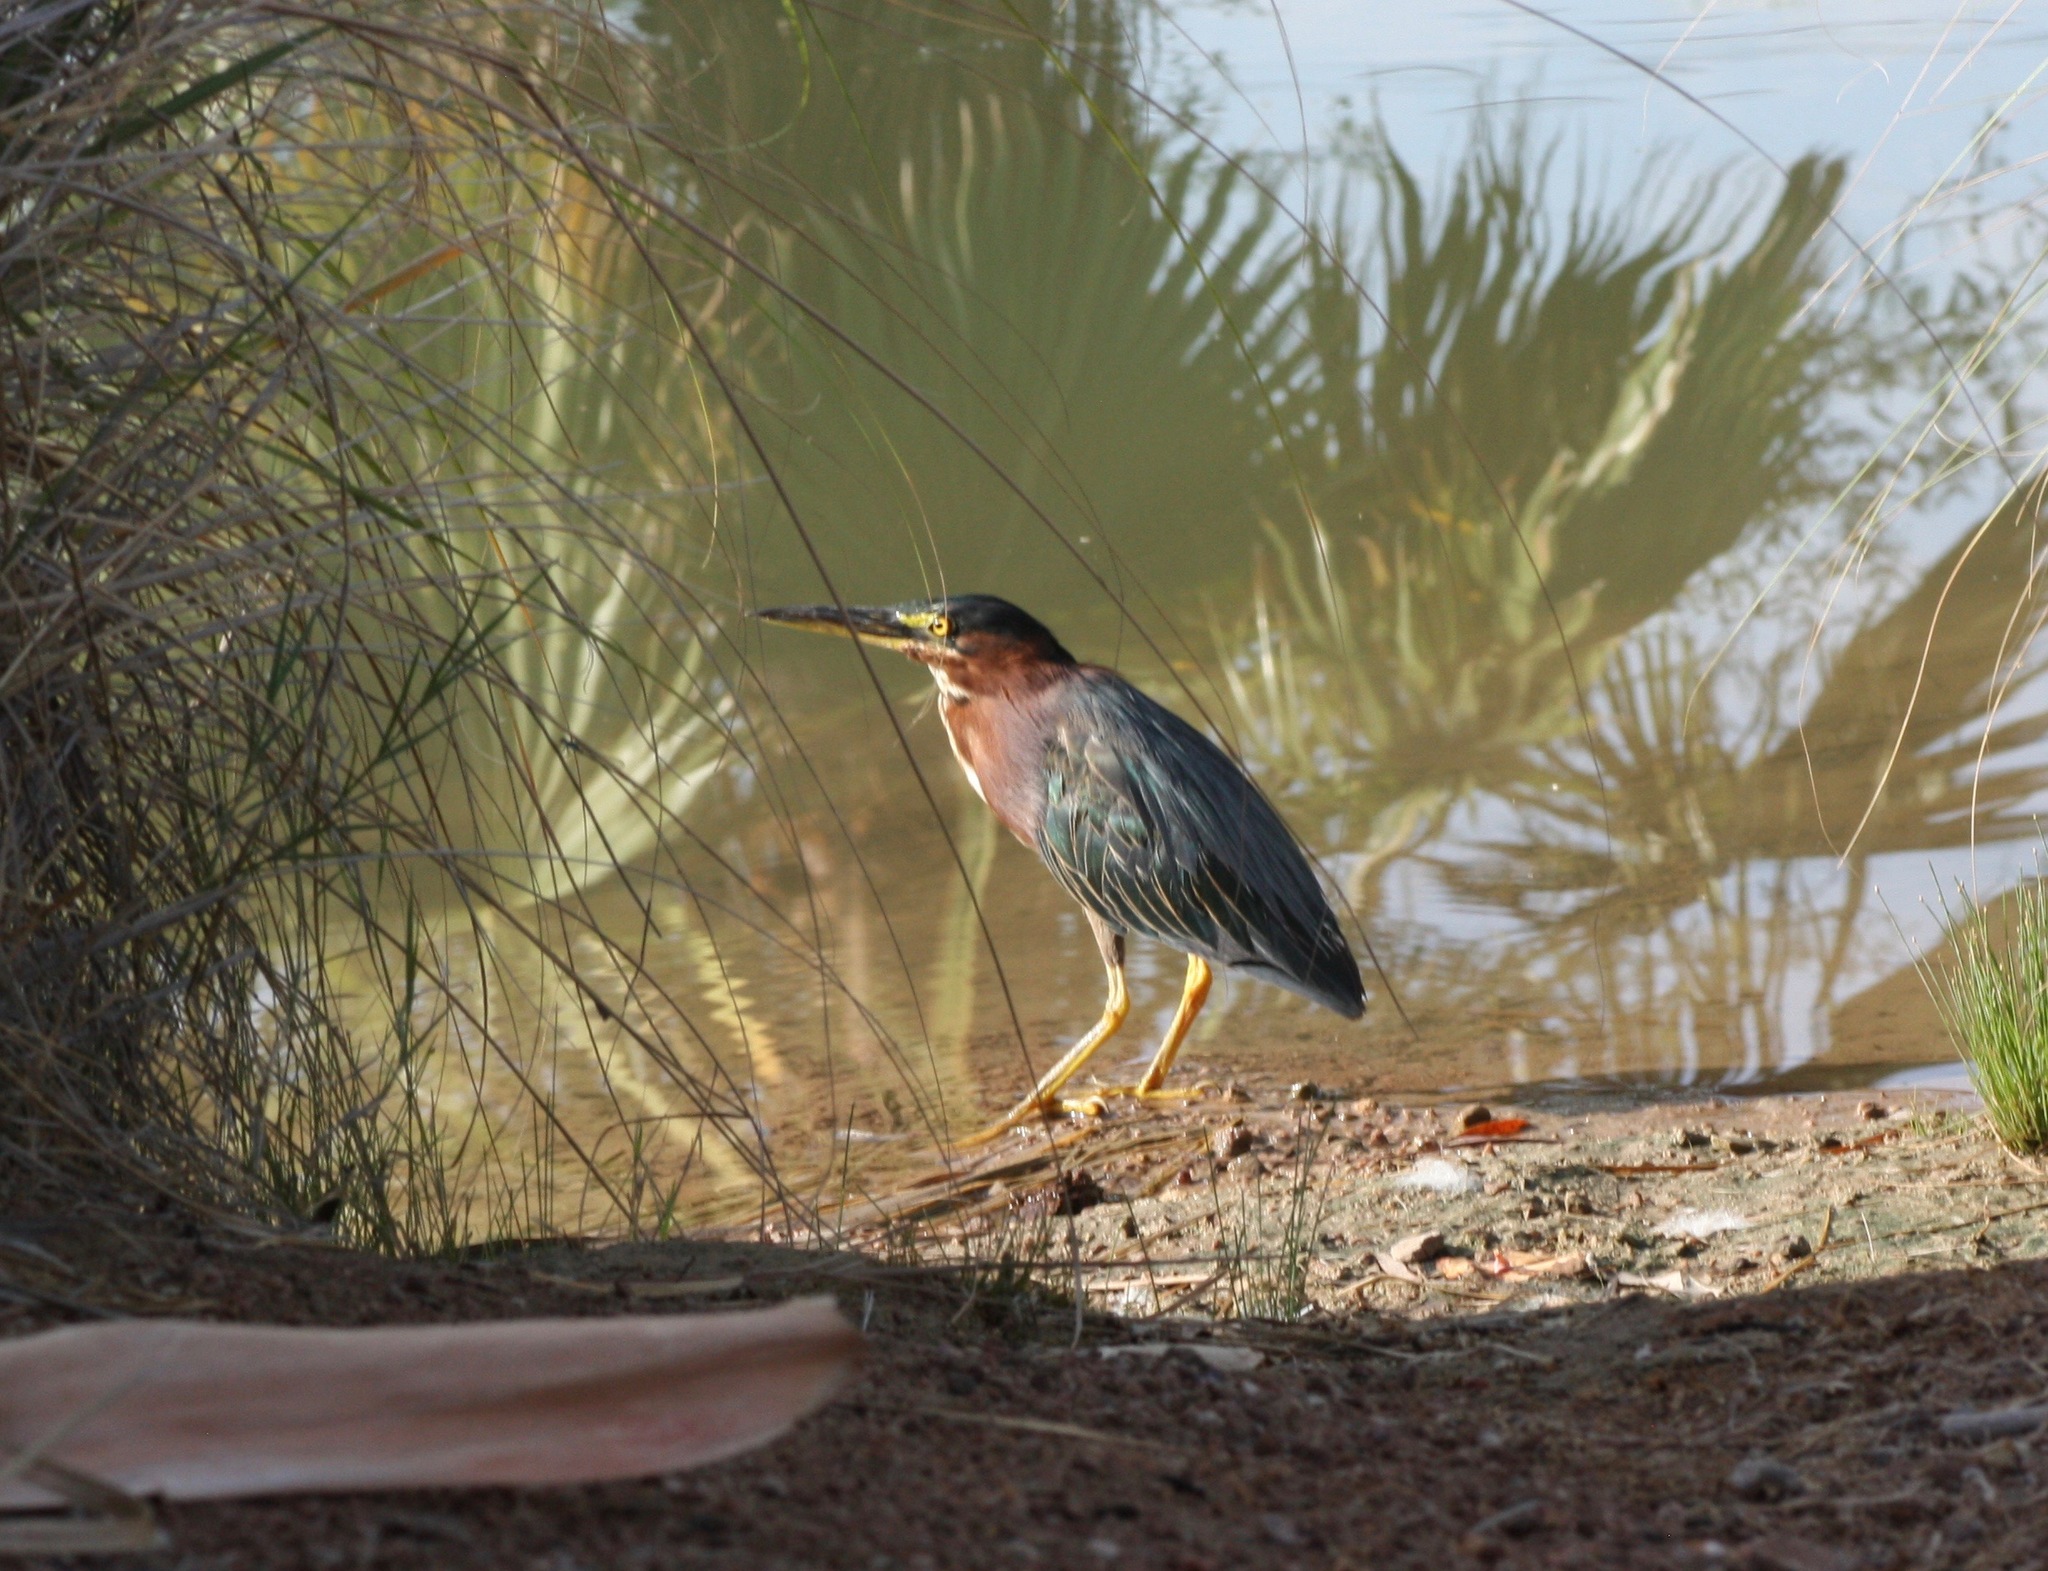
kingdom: Animalia
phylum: Chordata
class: Aves
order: Pelecaniformes
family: Ardeidae
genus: Butorides
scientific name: Butorides virescens
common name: Green heron
